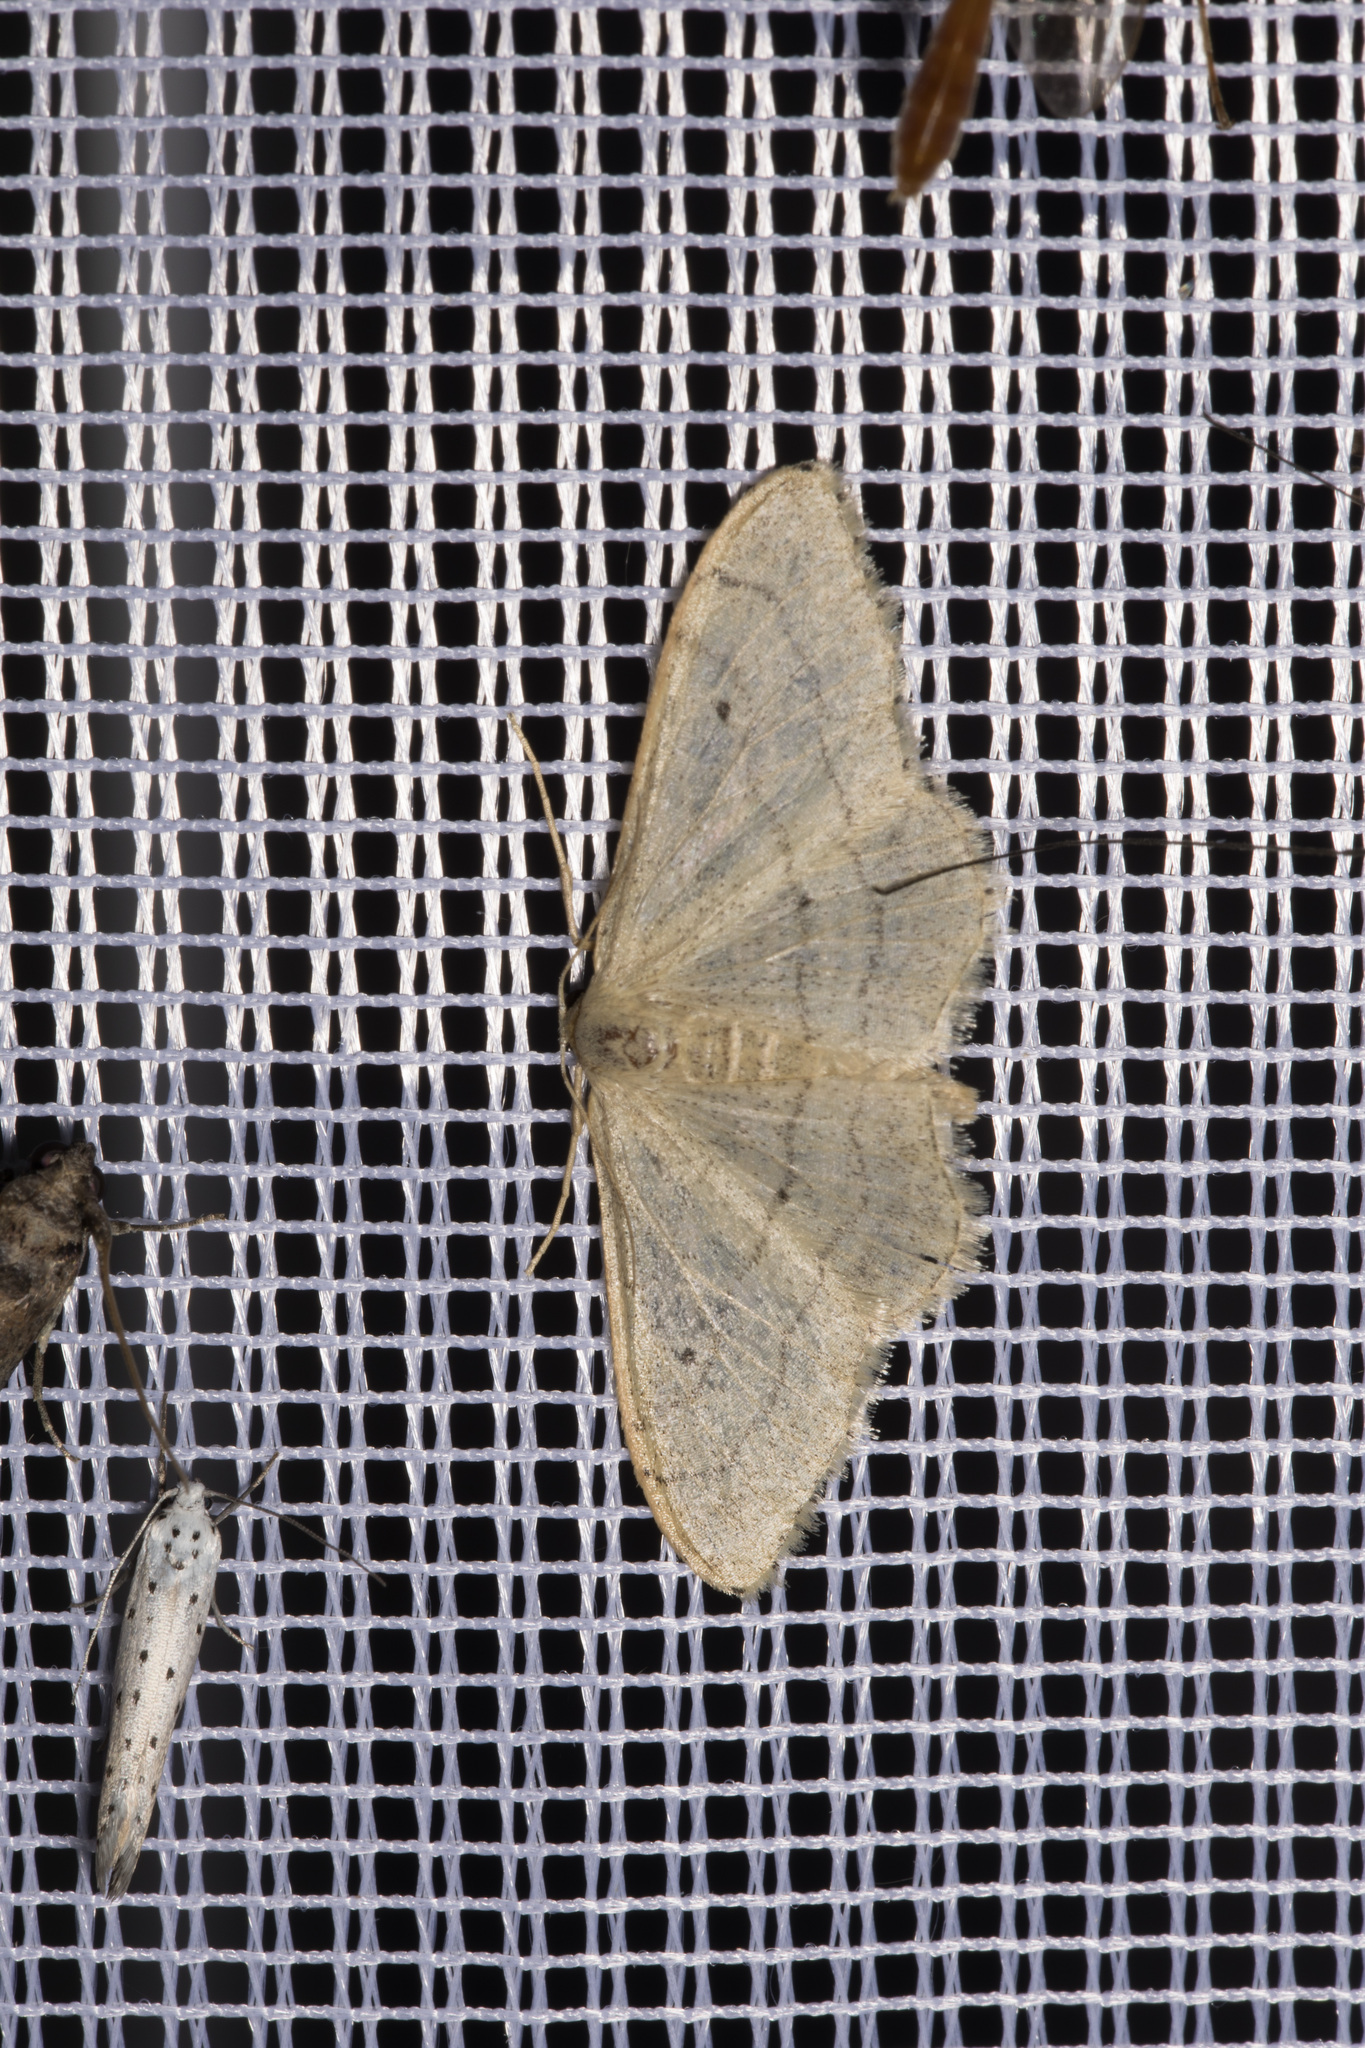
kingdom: Animalia
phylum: Arthropoda
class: Insecta
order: Lepidoptera
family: Geometridae
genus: Idaea
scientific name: Idaea straminata
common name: Plain wave
